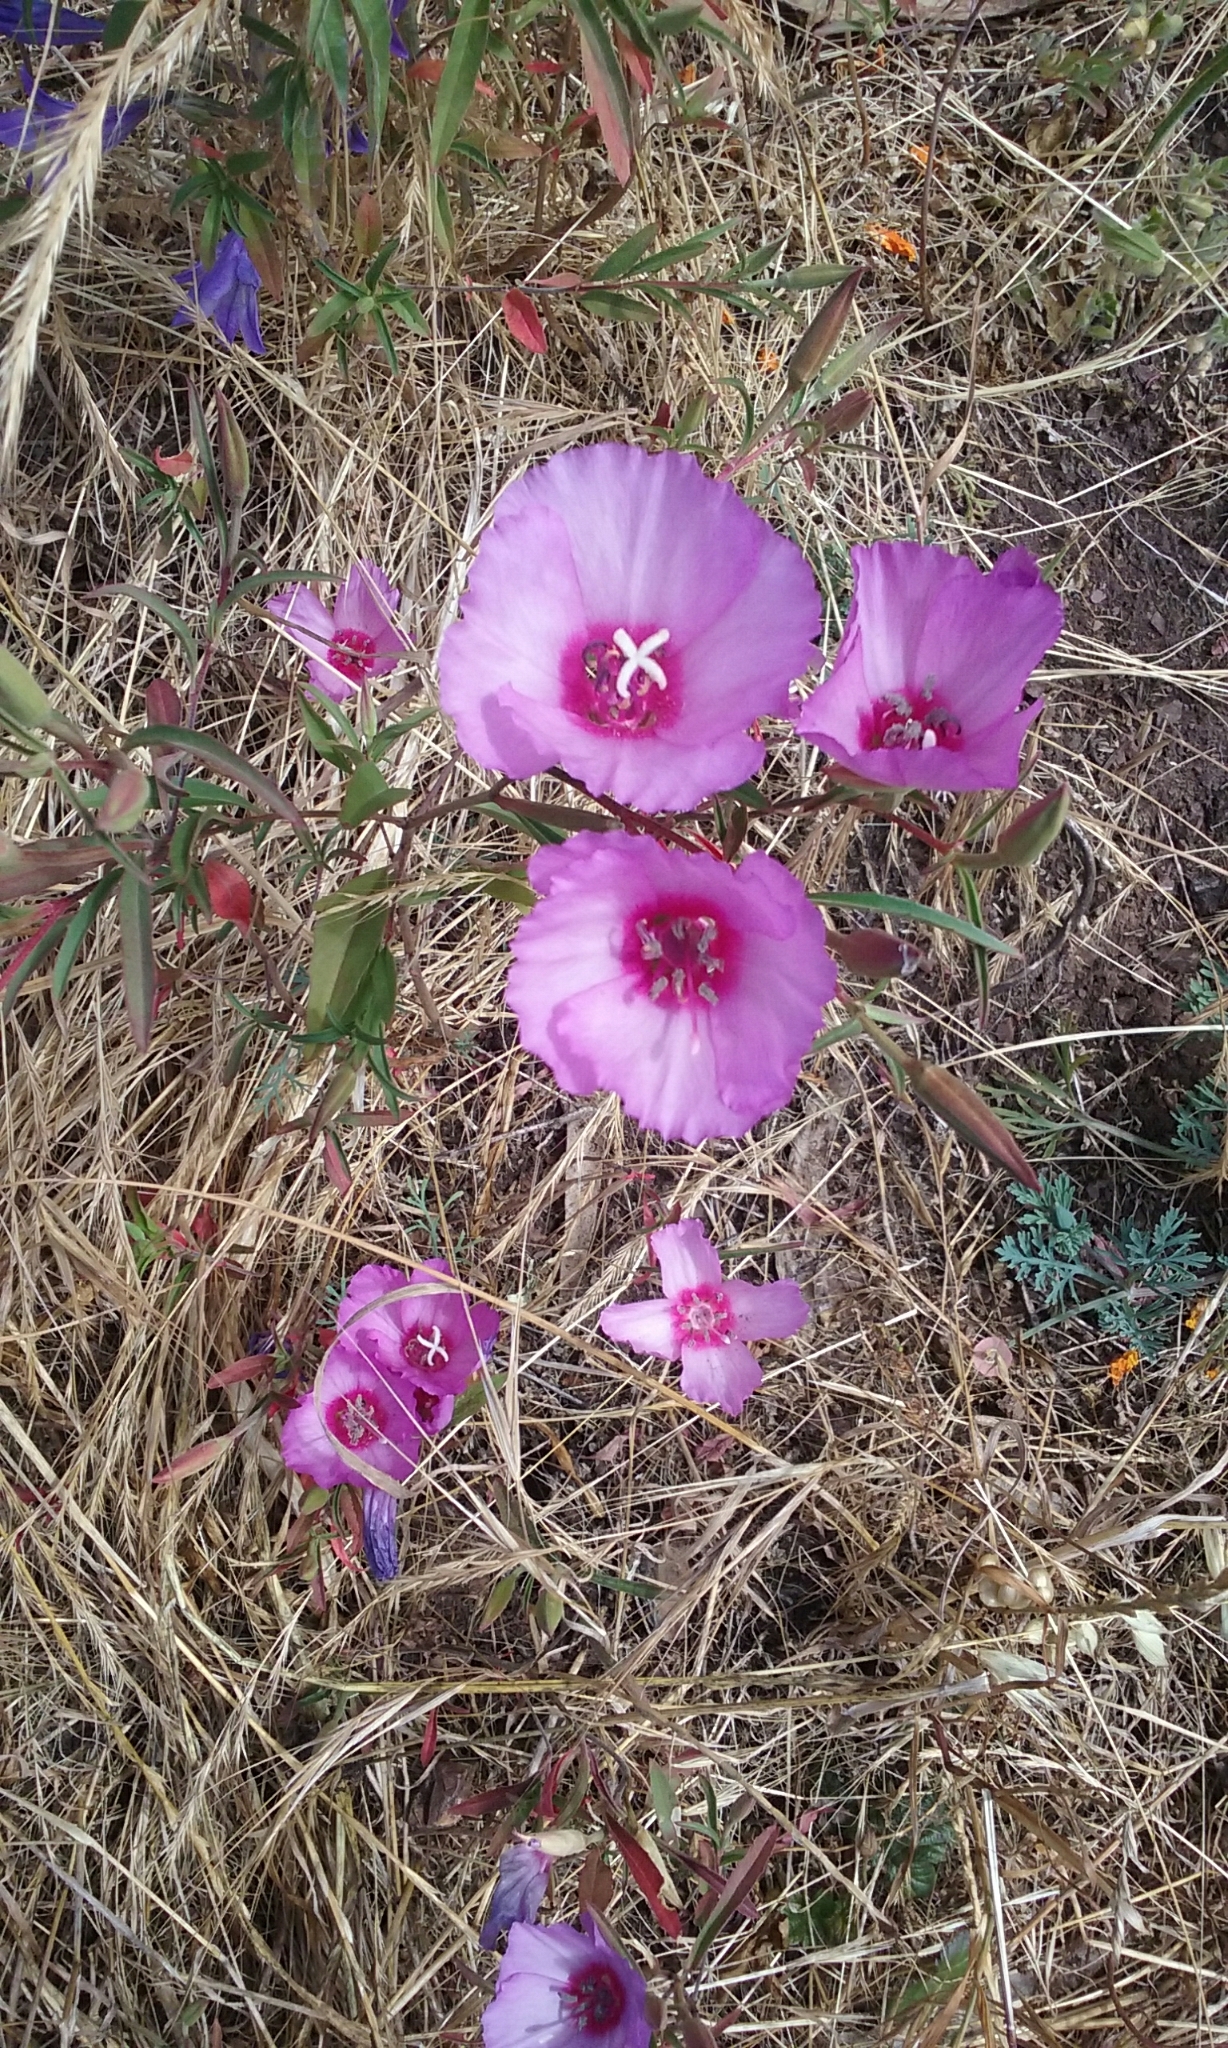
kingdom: Plantae
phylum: Tracheophyta
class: Magnoliopsida
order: Myrtales
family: Onagraceae
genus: Clarkia
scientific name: Clarkia rubicunda
